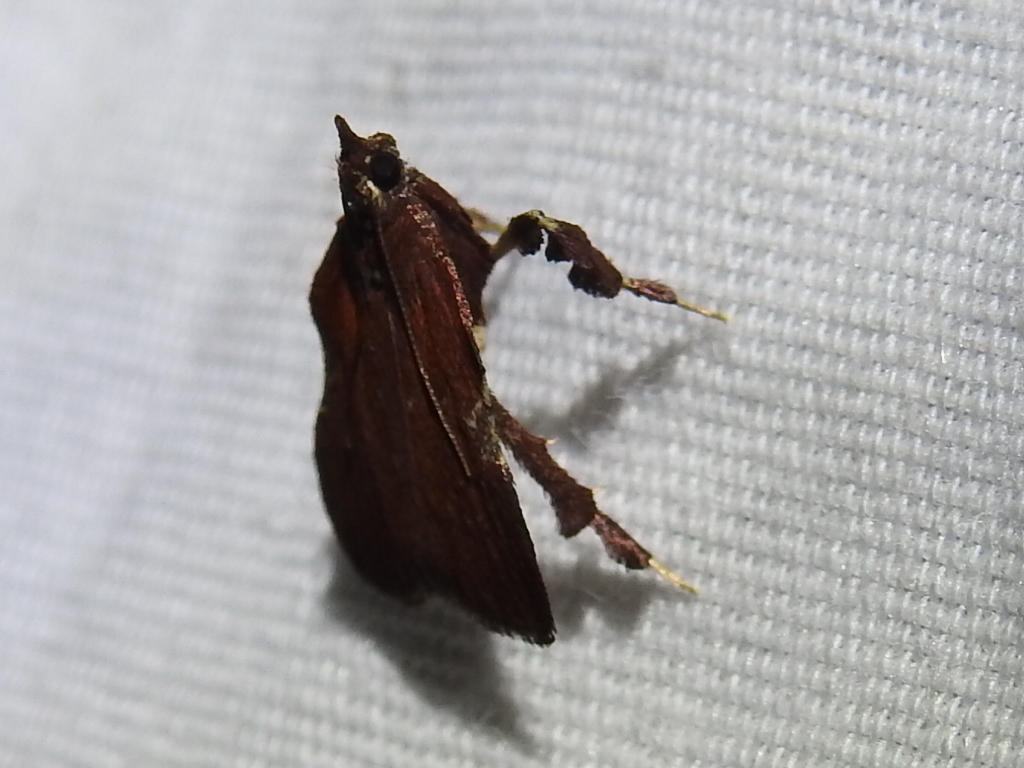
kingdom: Animalia
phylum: Arthropoda
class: Insecta
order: Lepidoptera
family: Pyralidae
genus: Galasa
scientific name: Galasa nigrinodis
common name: Boxwood leaftier moth
